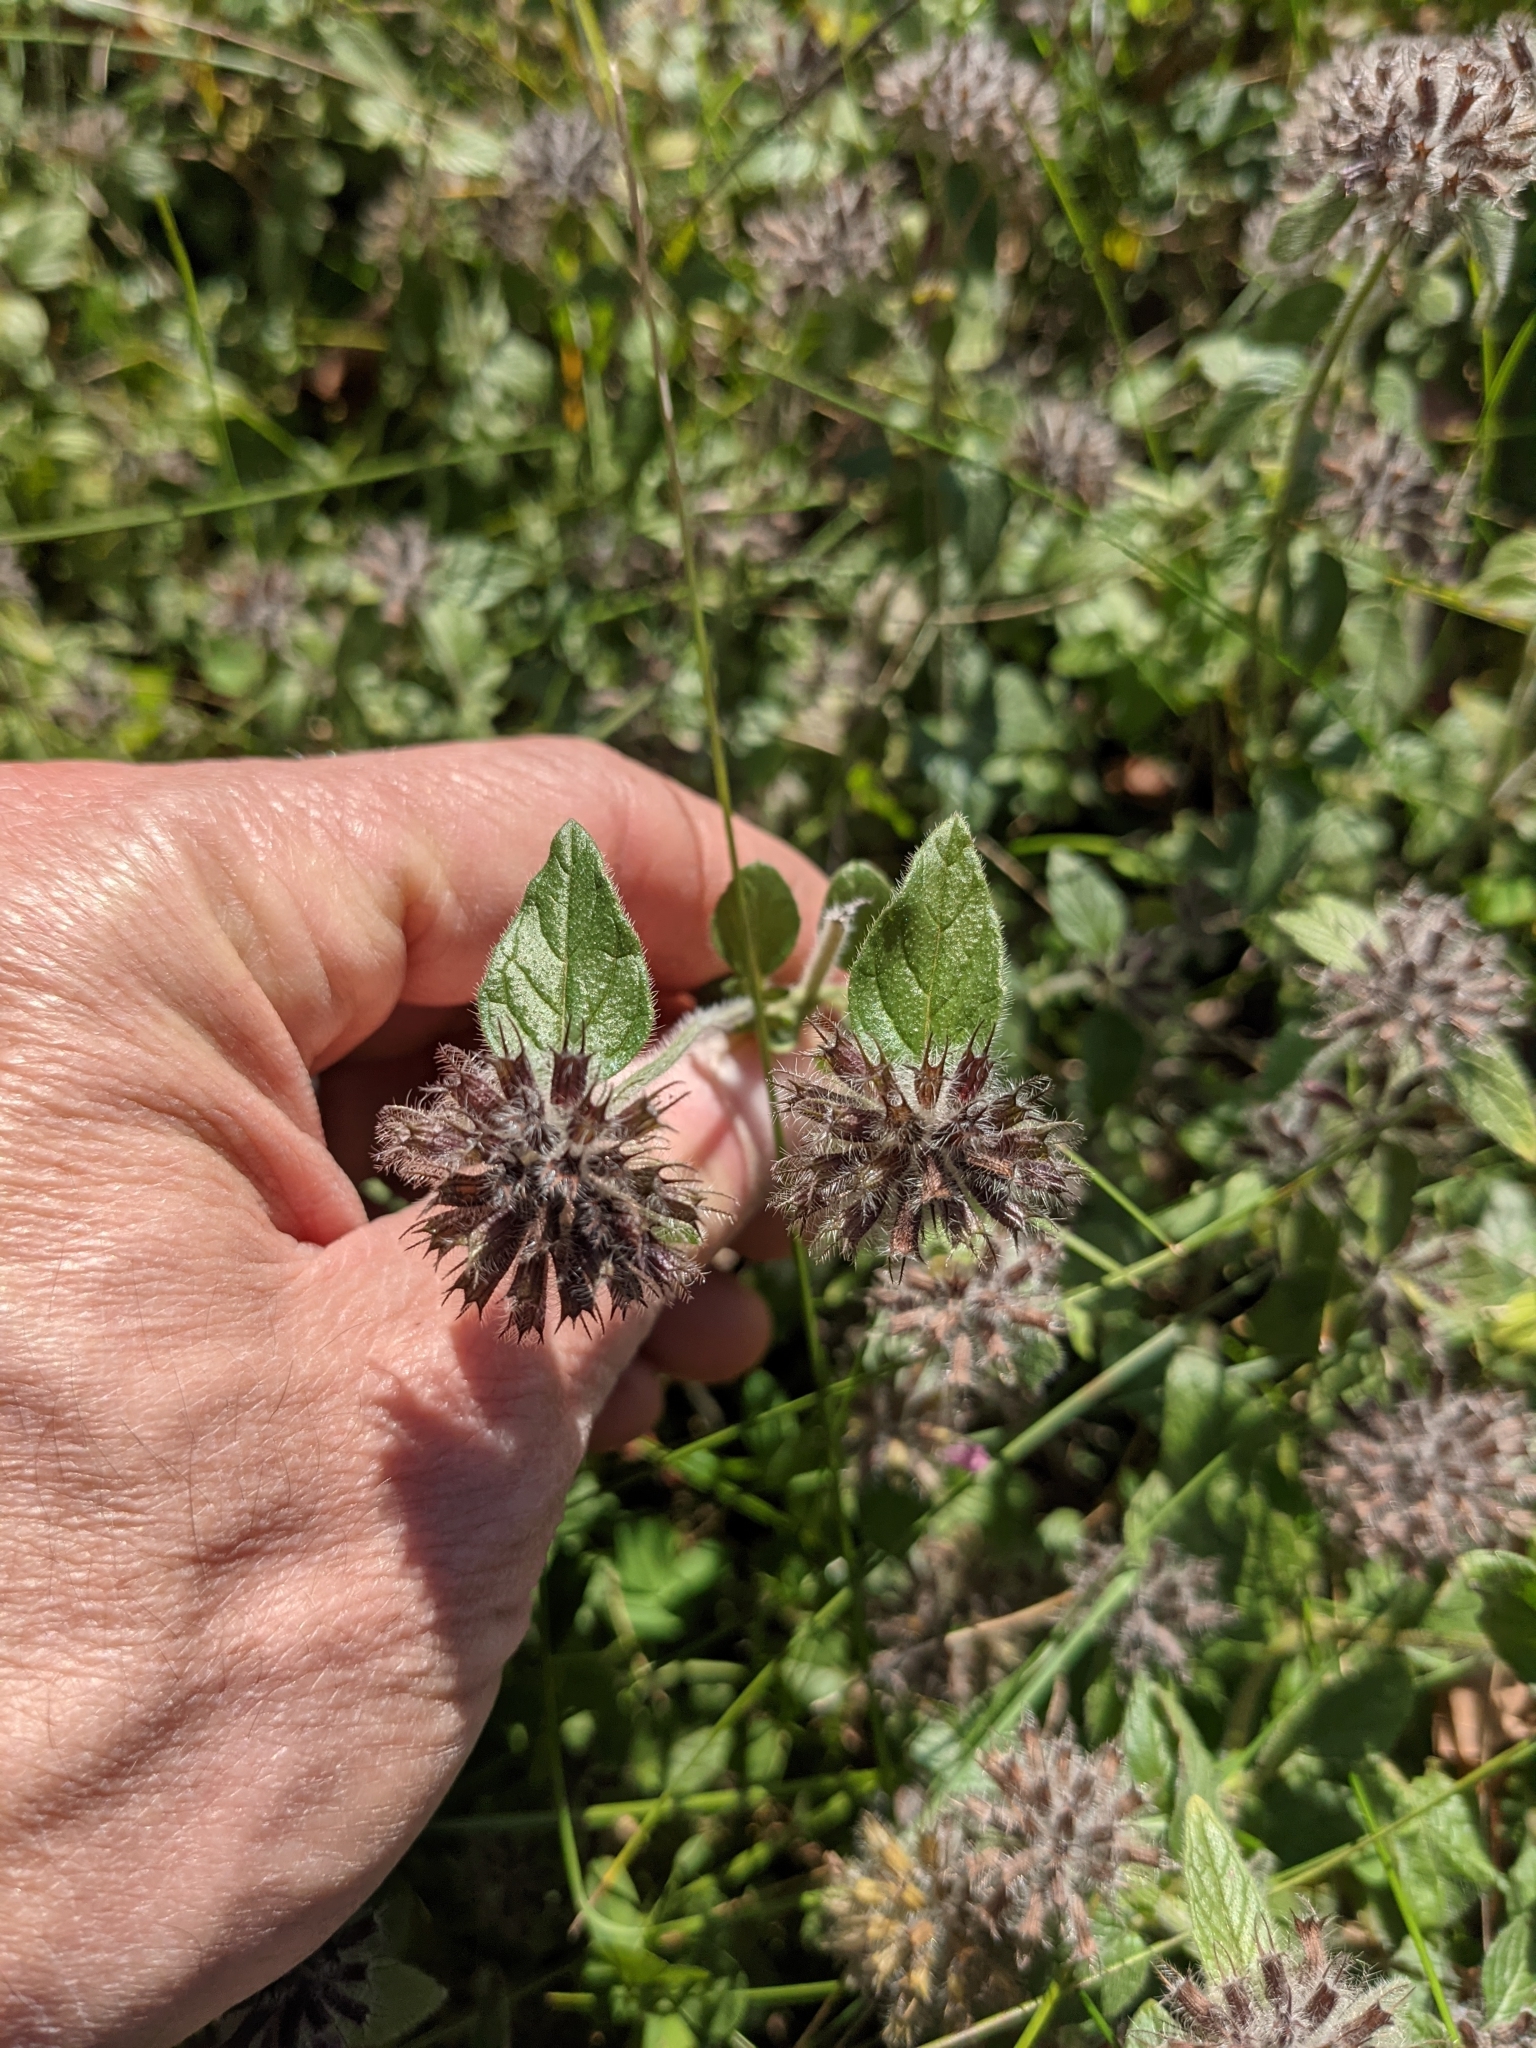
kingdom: Plantae
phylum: Tracheophyta
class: Magnoliopsida
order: Lamiales
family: Lamiaceae
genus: Clinopodium
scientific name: Clinopodium vulgare
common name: Wild basil
